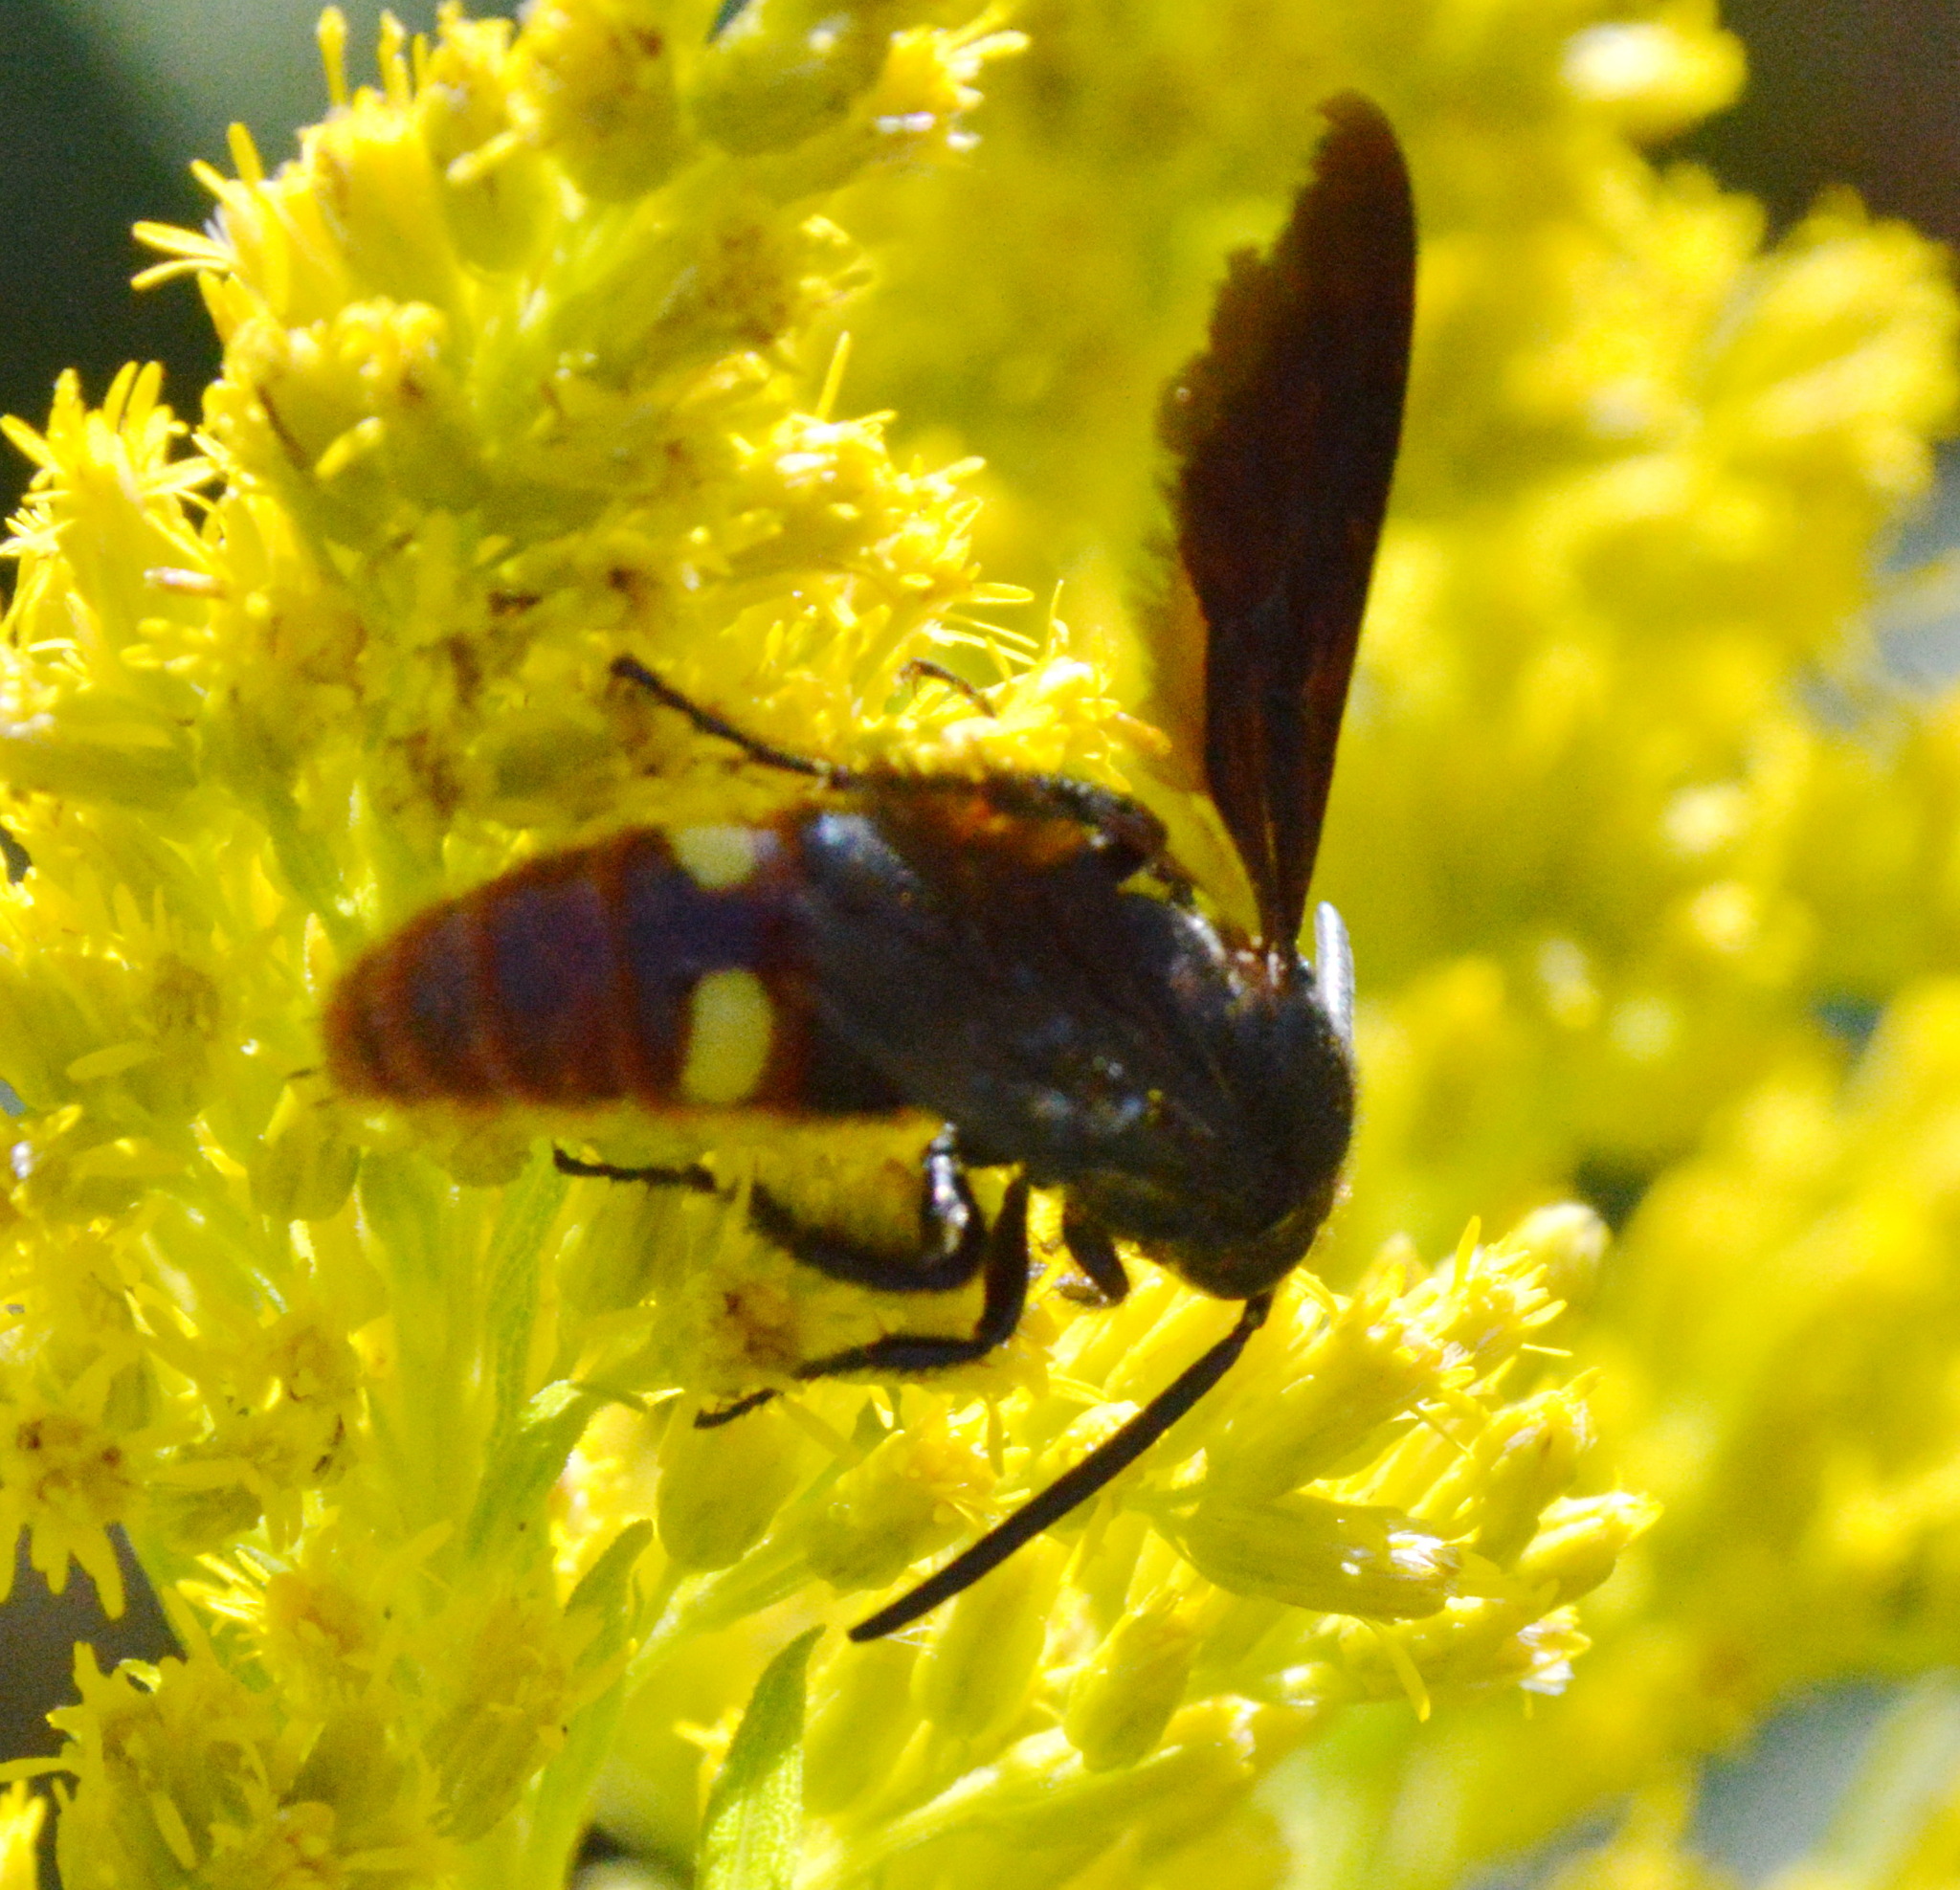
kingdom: Animalia
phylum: Arthropoda
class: Insecta
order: Hymenoptera
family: Scoliidae
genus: Scolia
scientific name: Scolia dubia
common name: Blue-winged scoliid wasp
